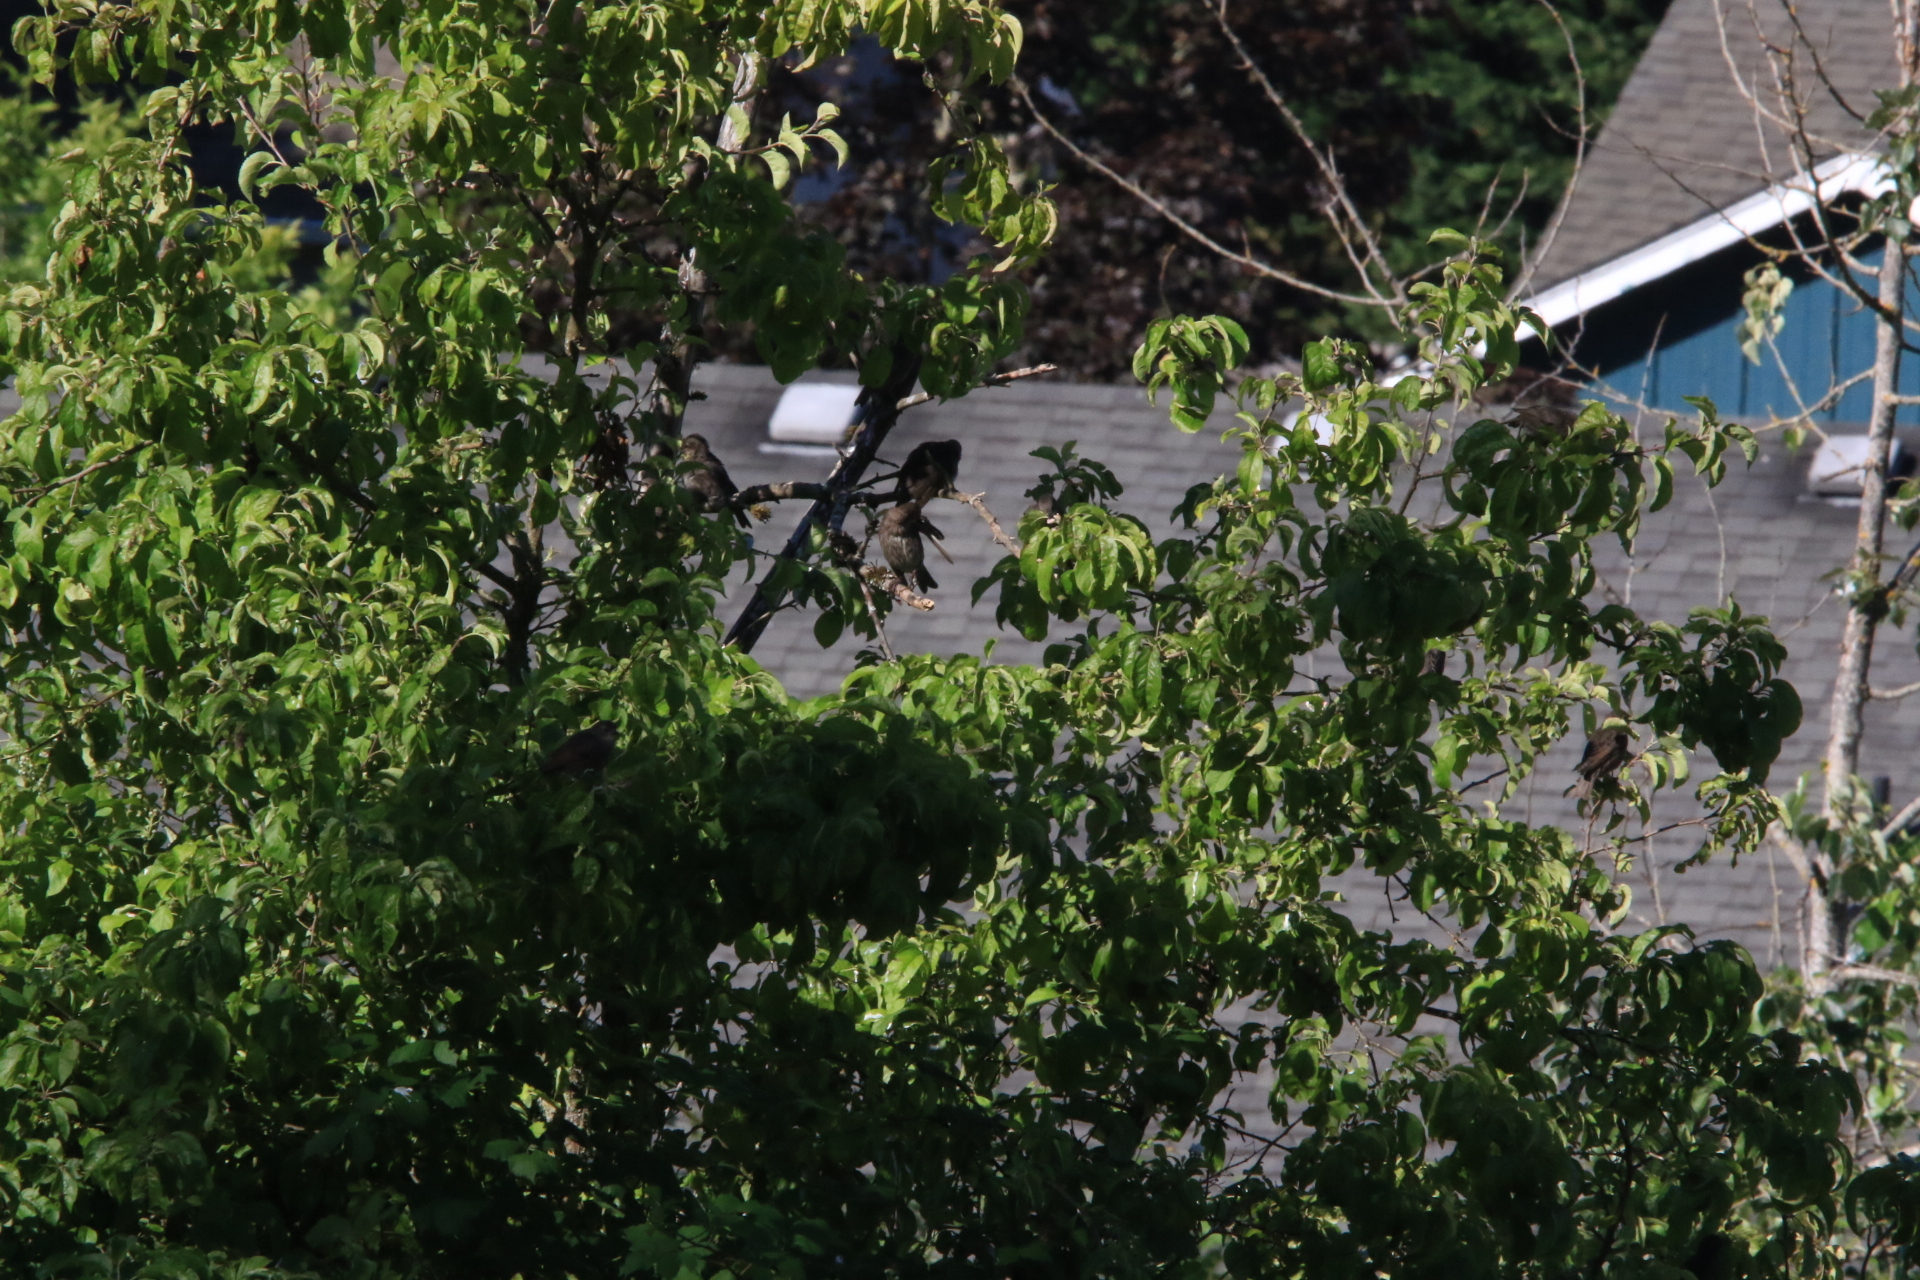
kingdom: Animalia
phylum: Chordata
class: Aves
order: Passeriformes
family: Sturnidae
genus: Sturnus
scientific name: Sturnus vulgaris
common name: Common starling
